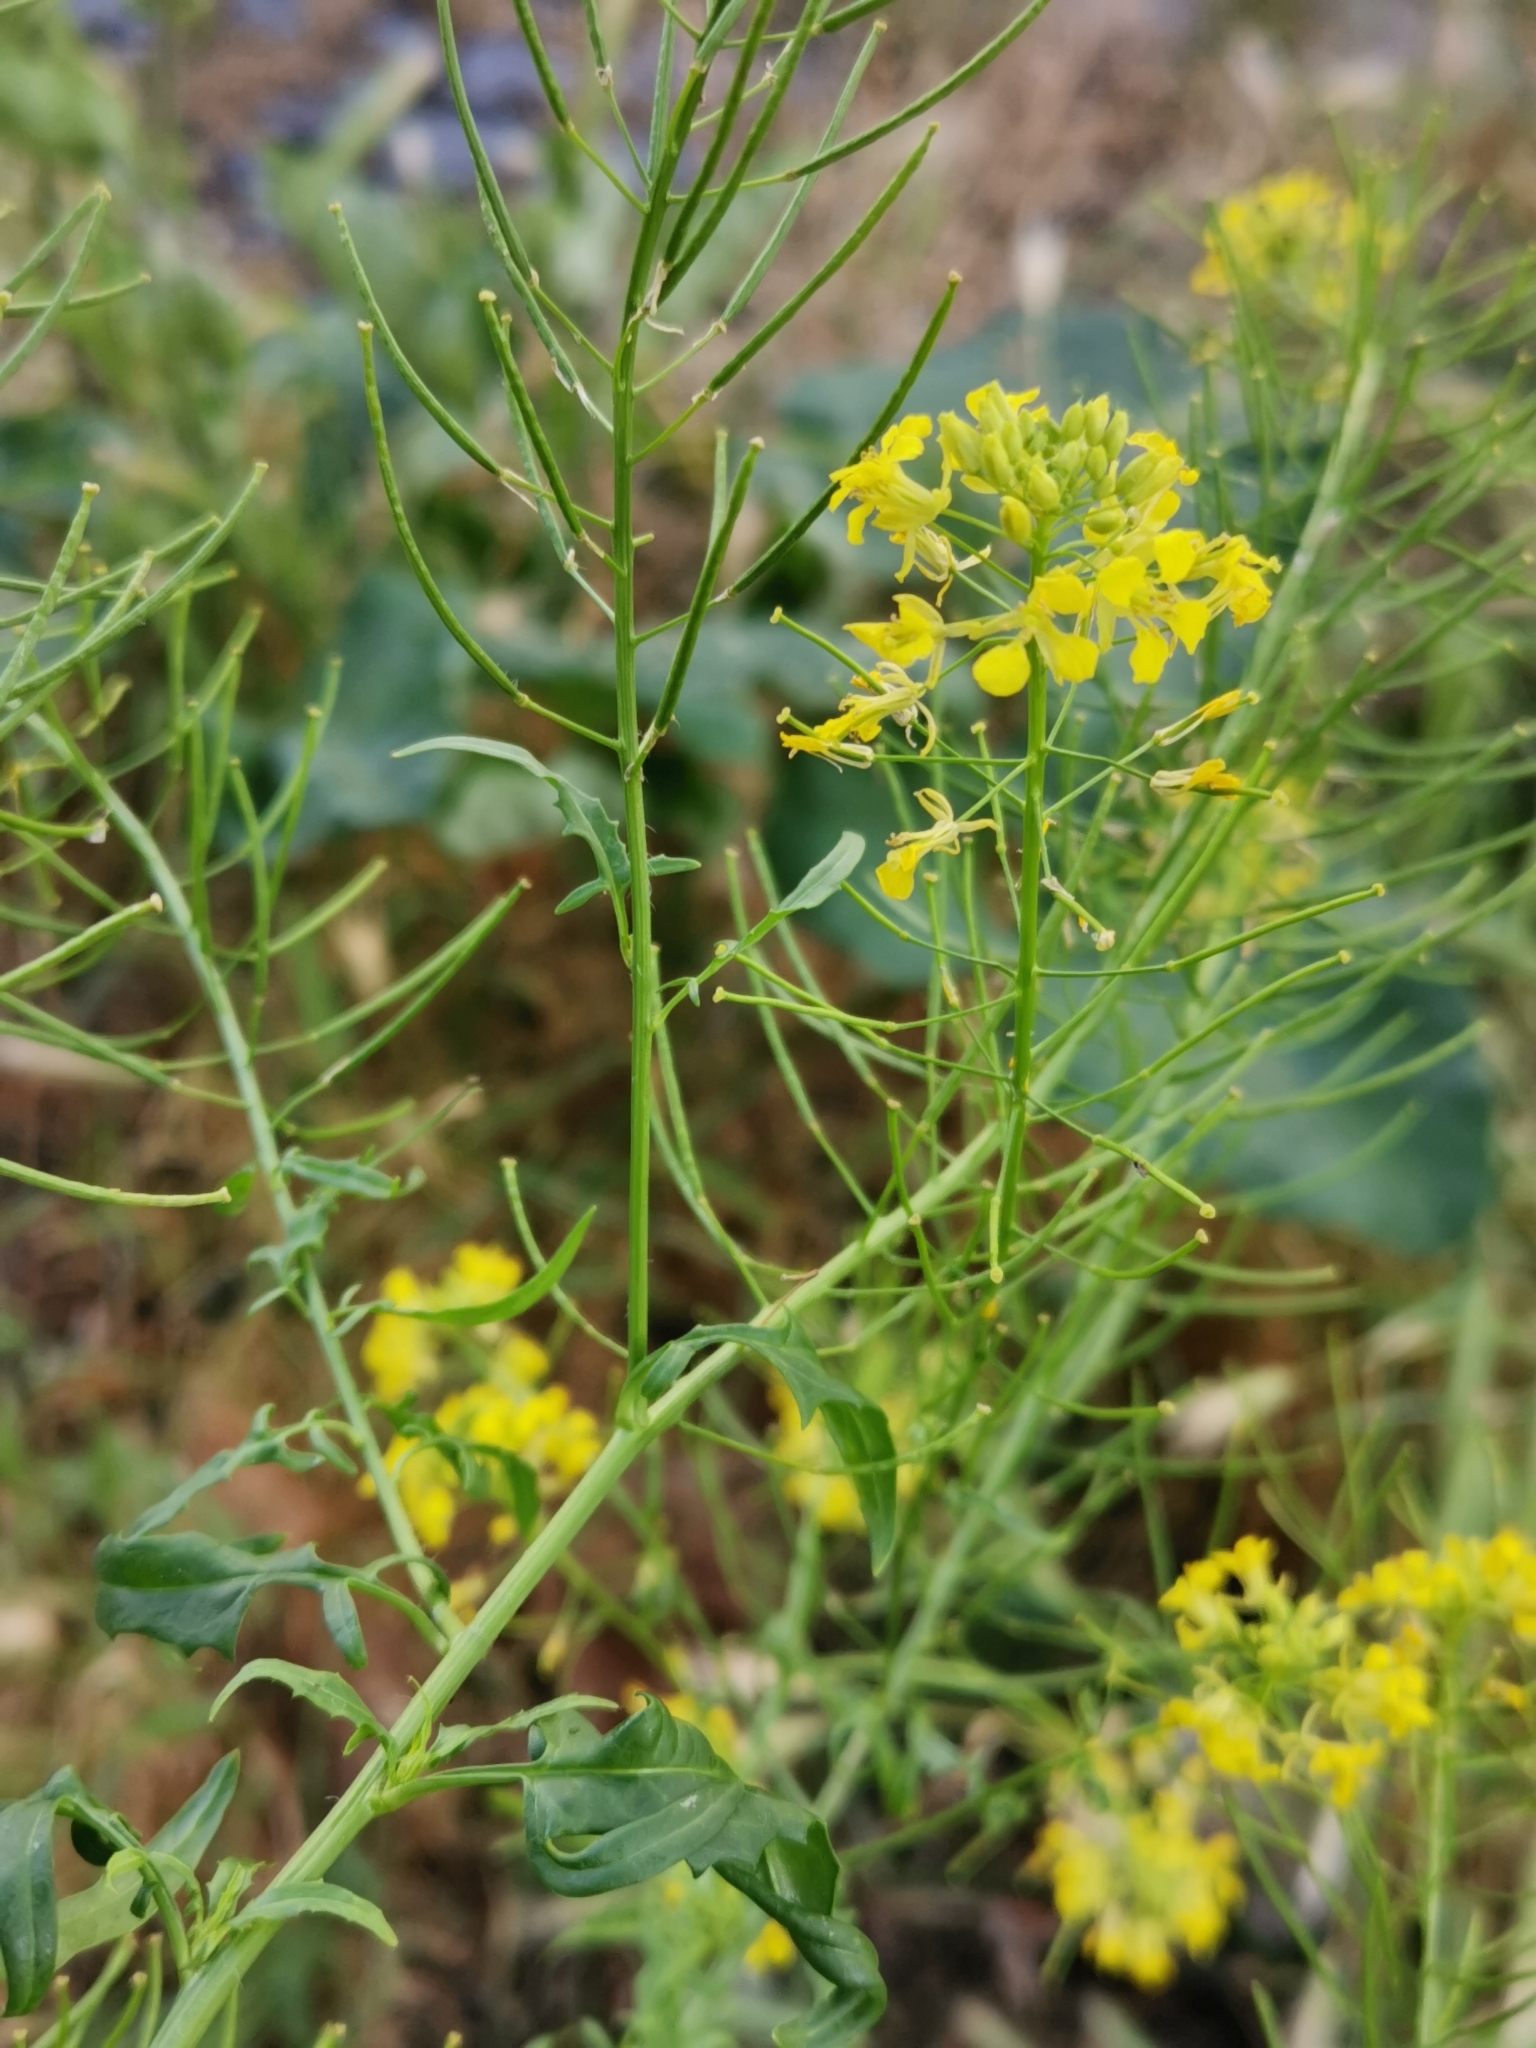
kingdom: Plantae
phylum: Tracheophyta
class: Magnoliopsida
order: Brassicales
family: Brassicaceae
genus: Sisymbrium
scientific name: Sisymbrium loeselii
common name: False london-rocket
